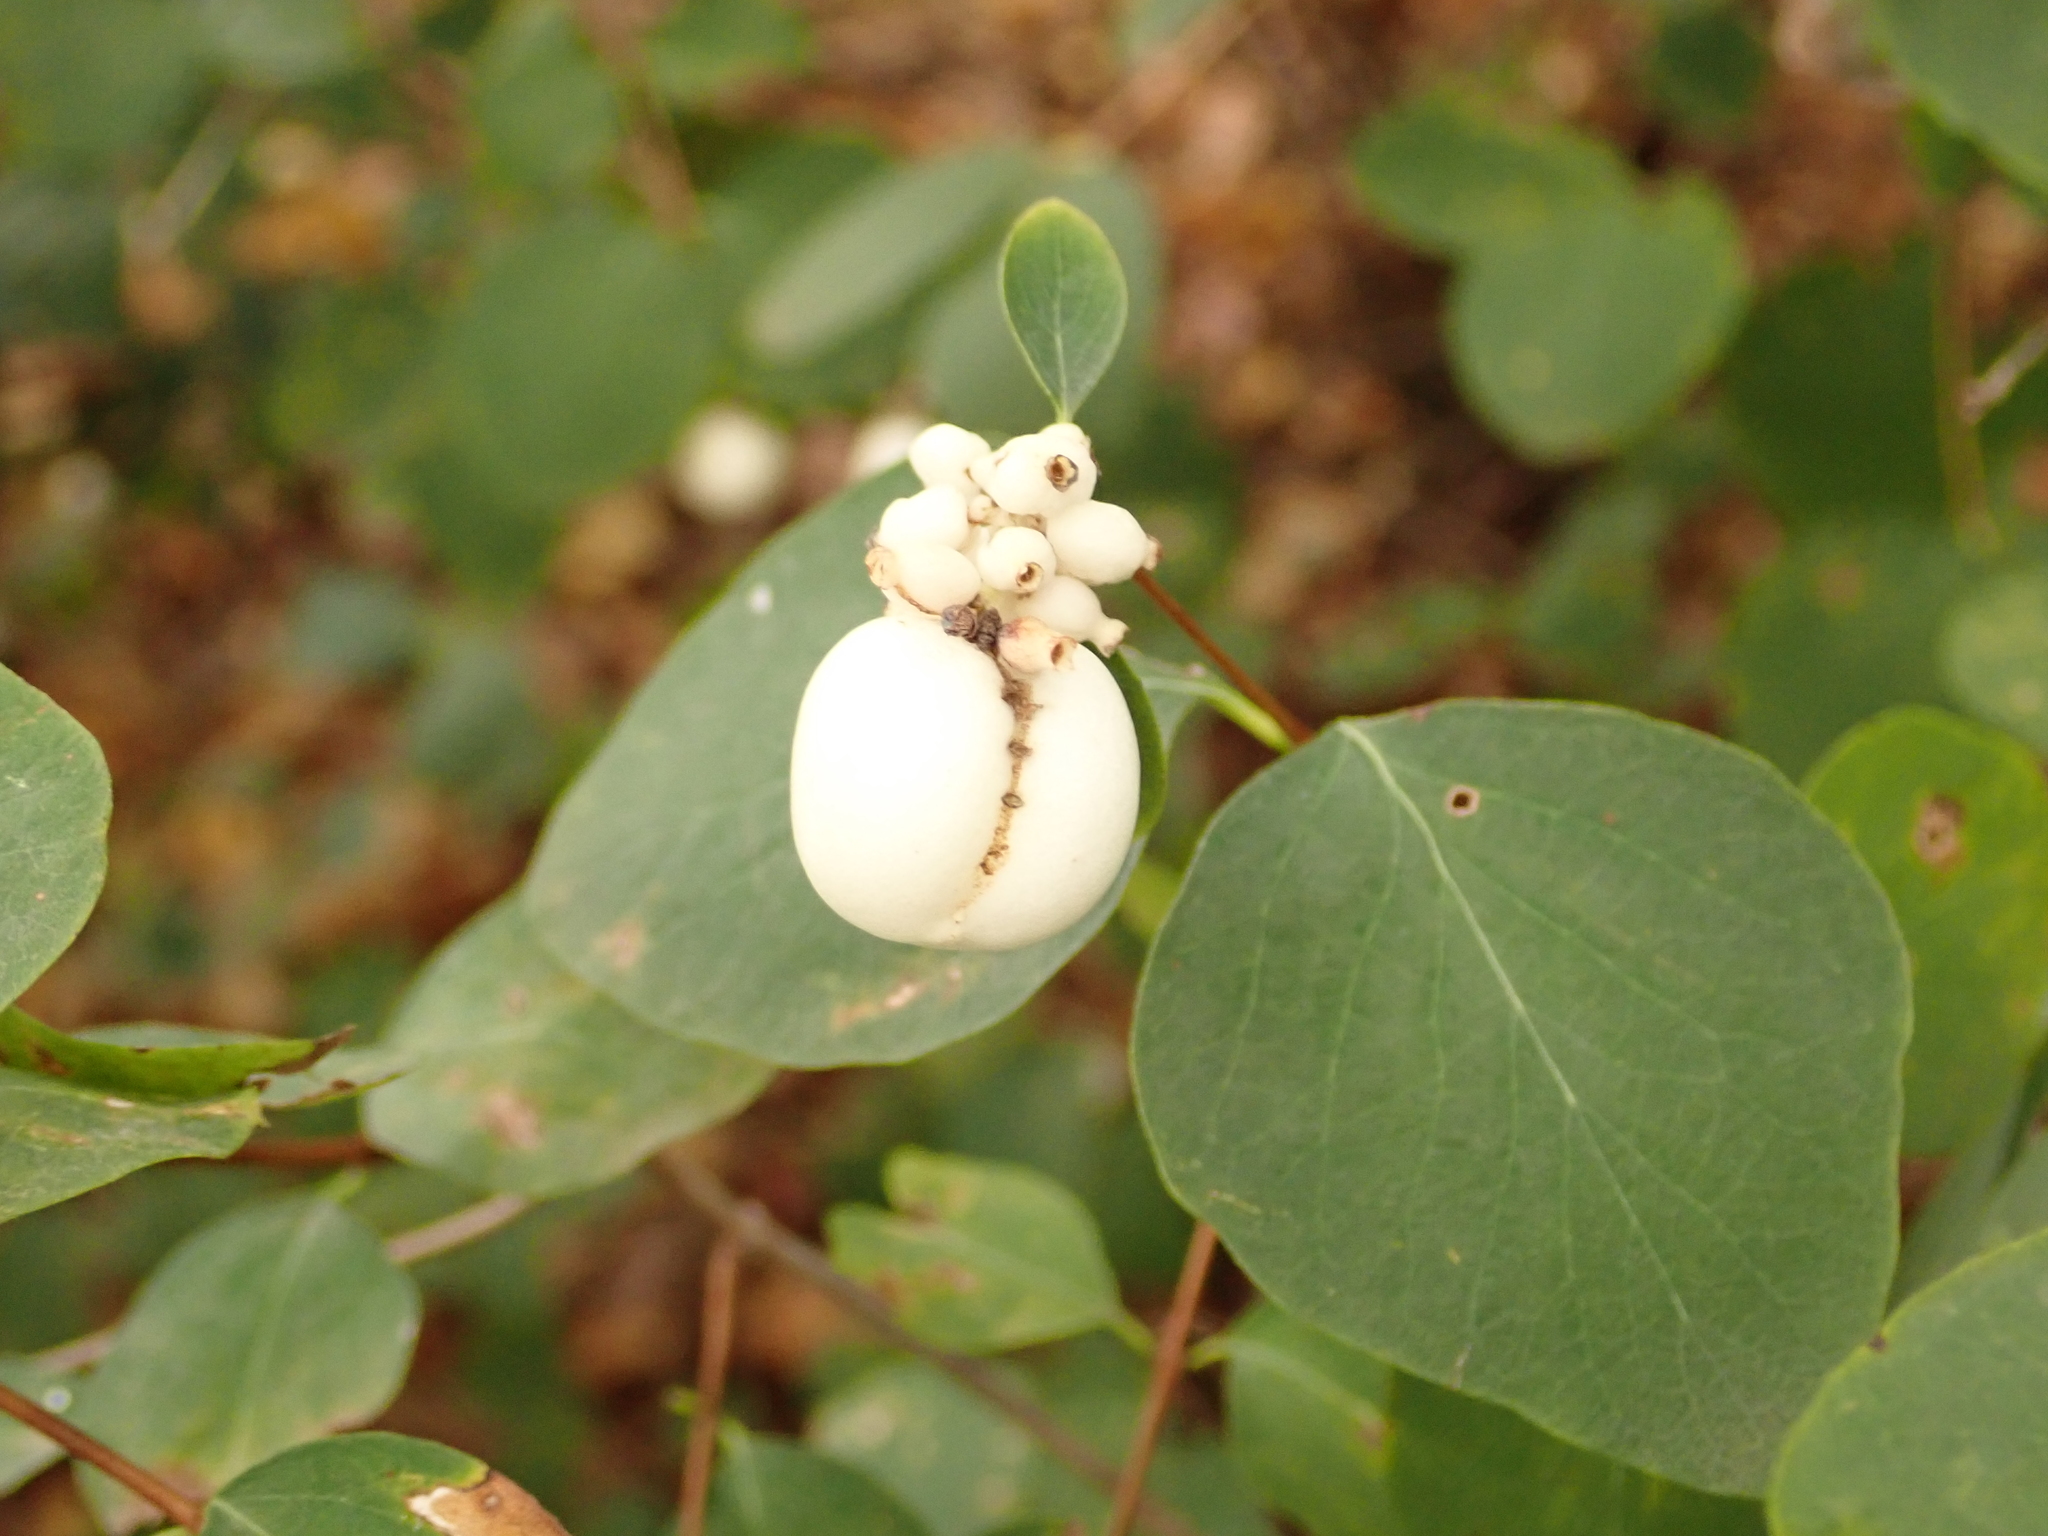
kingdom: Plantae
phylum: Tracheophyta
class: Magnoliopsida
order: Dipsacales
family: Caprifoliaceae
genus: Symphoricarpos
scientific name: Symphoricarpos albus
